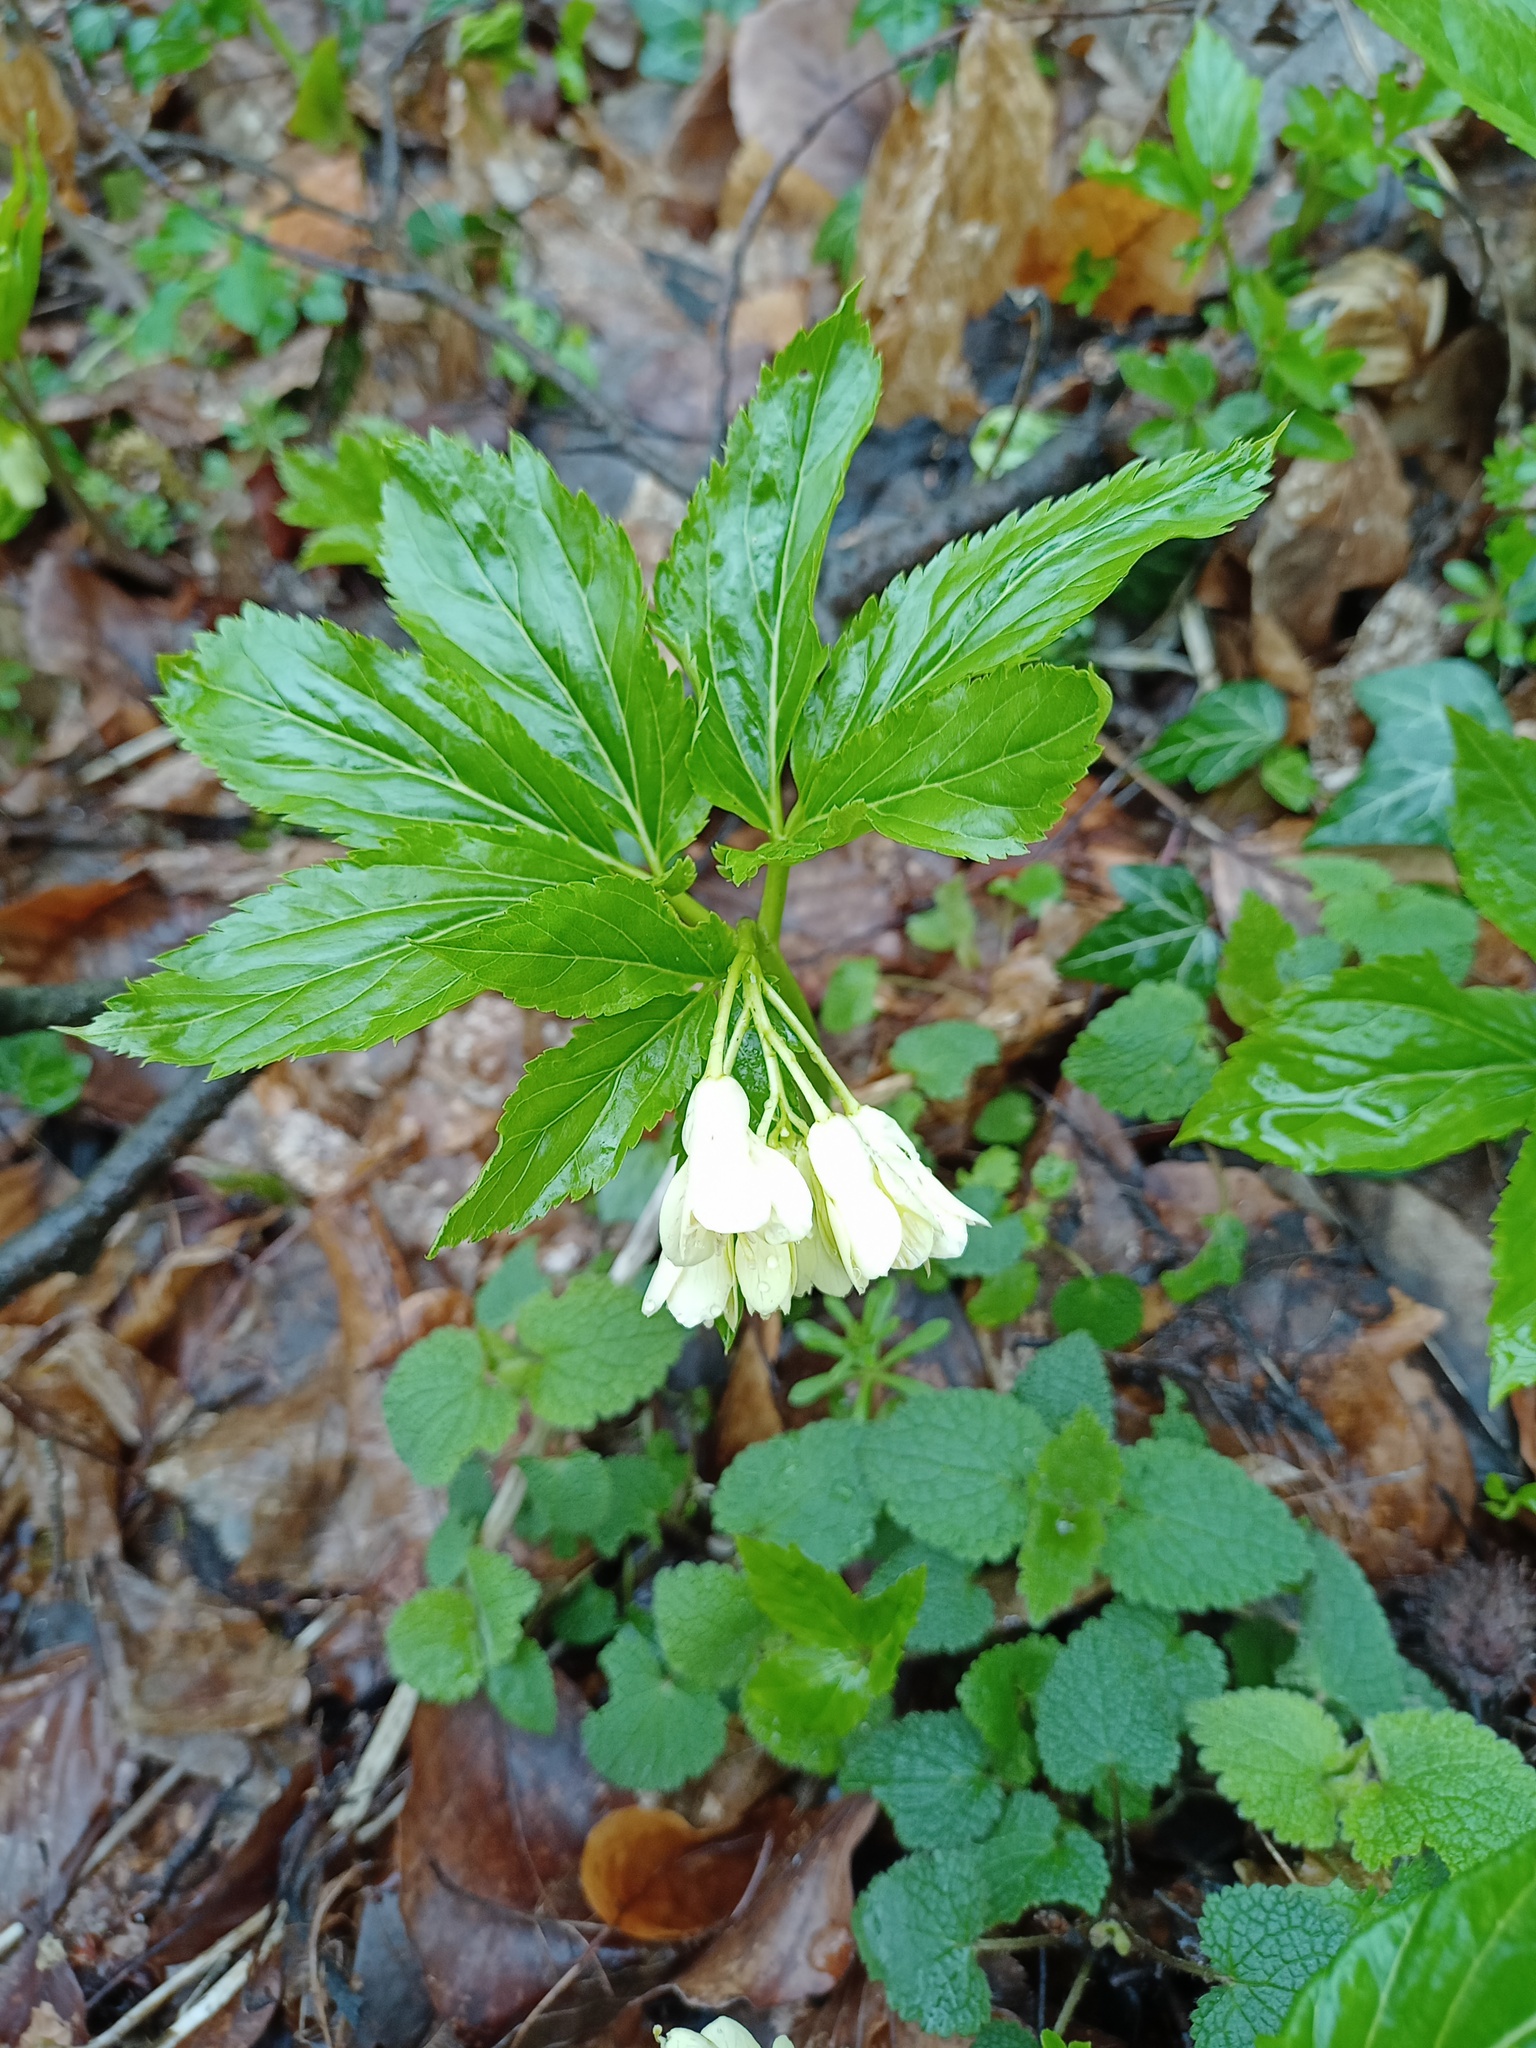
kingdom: Plantae
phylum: Tracheophyta
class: Magnoliopsida
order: Brassicales
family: Brassicaceae
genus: Cardamine
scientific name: Cardamine enneaphyllos
